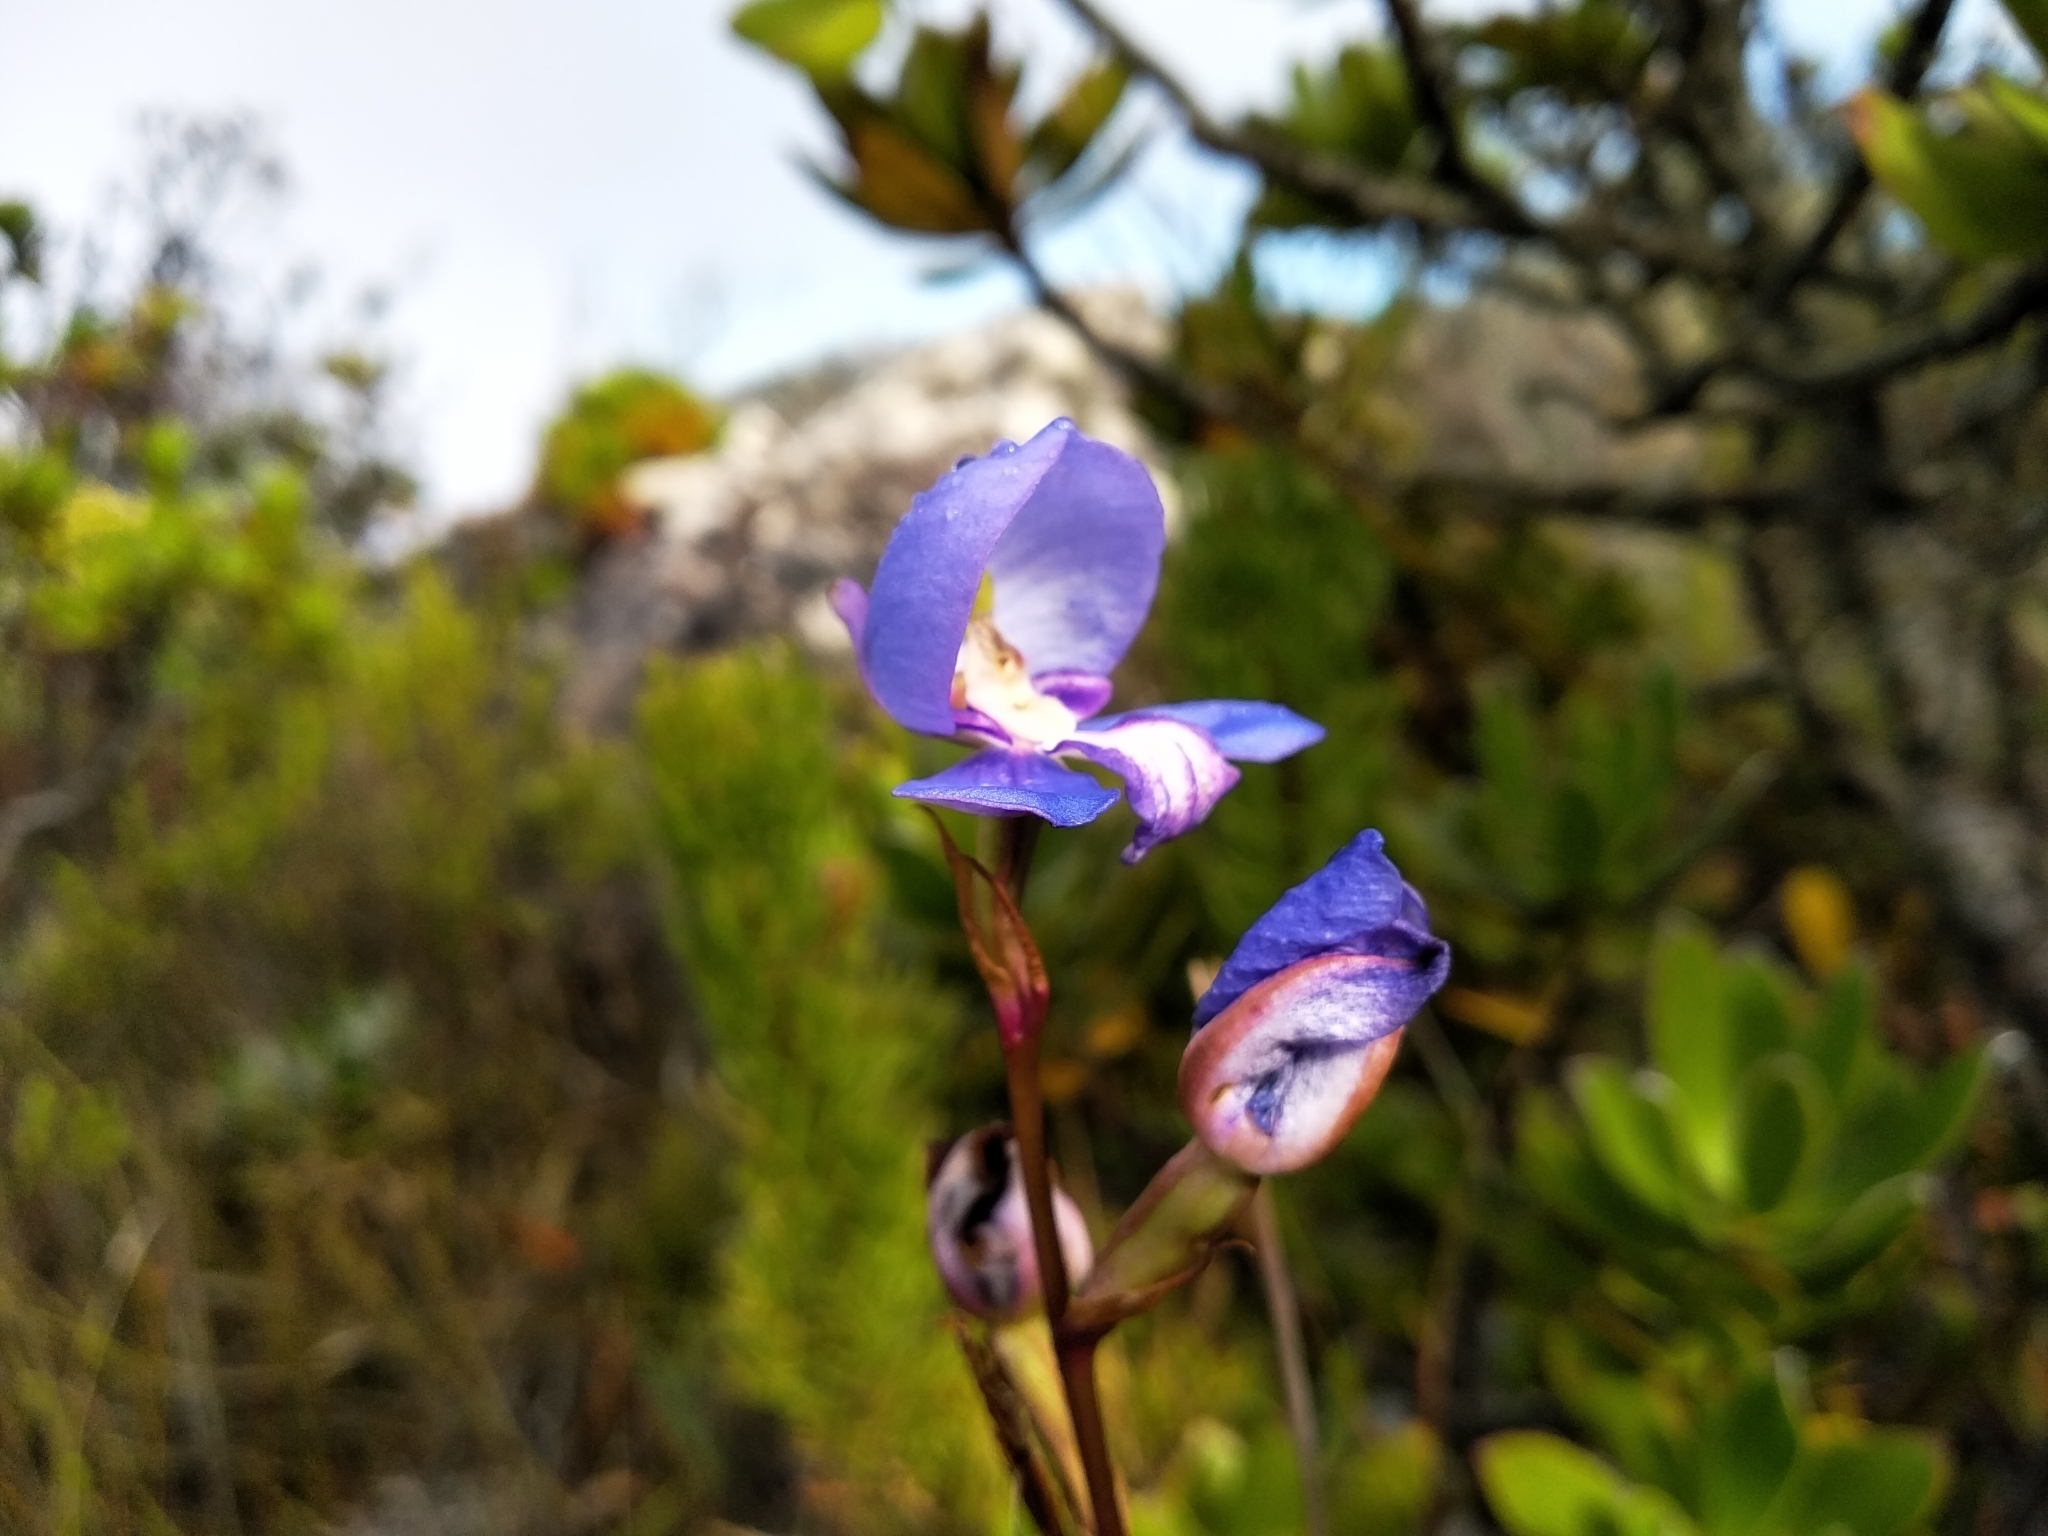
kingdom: Plantae
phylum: Tracheophyta
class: Liliopsida
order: Asparagales
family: Orchidaceae
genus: Disa
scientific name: Disa graminifolia
